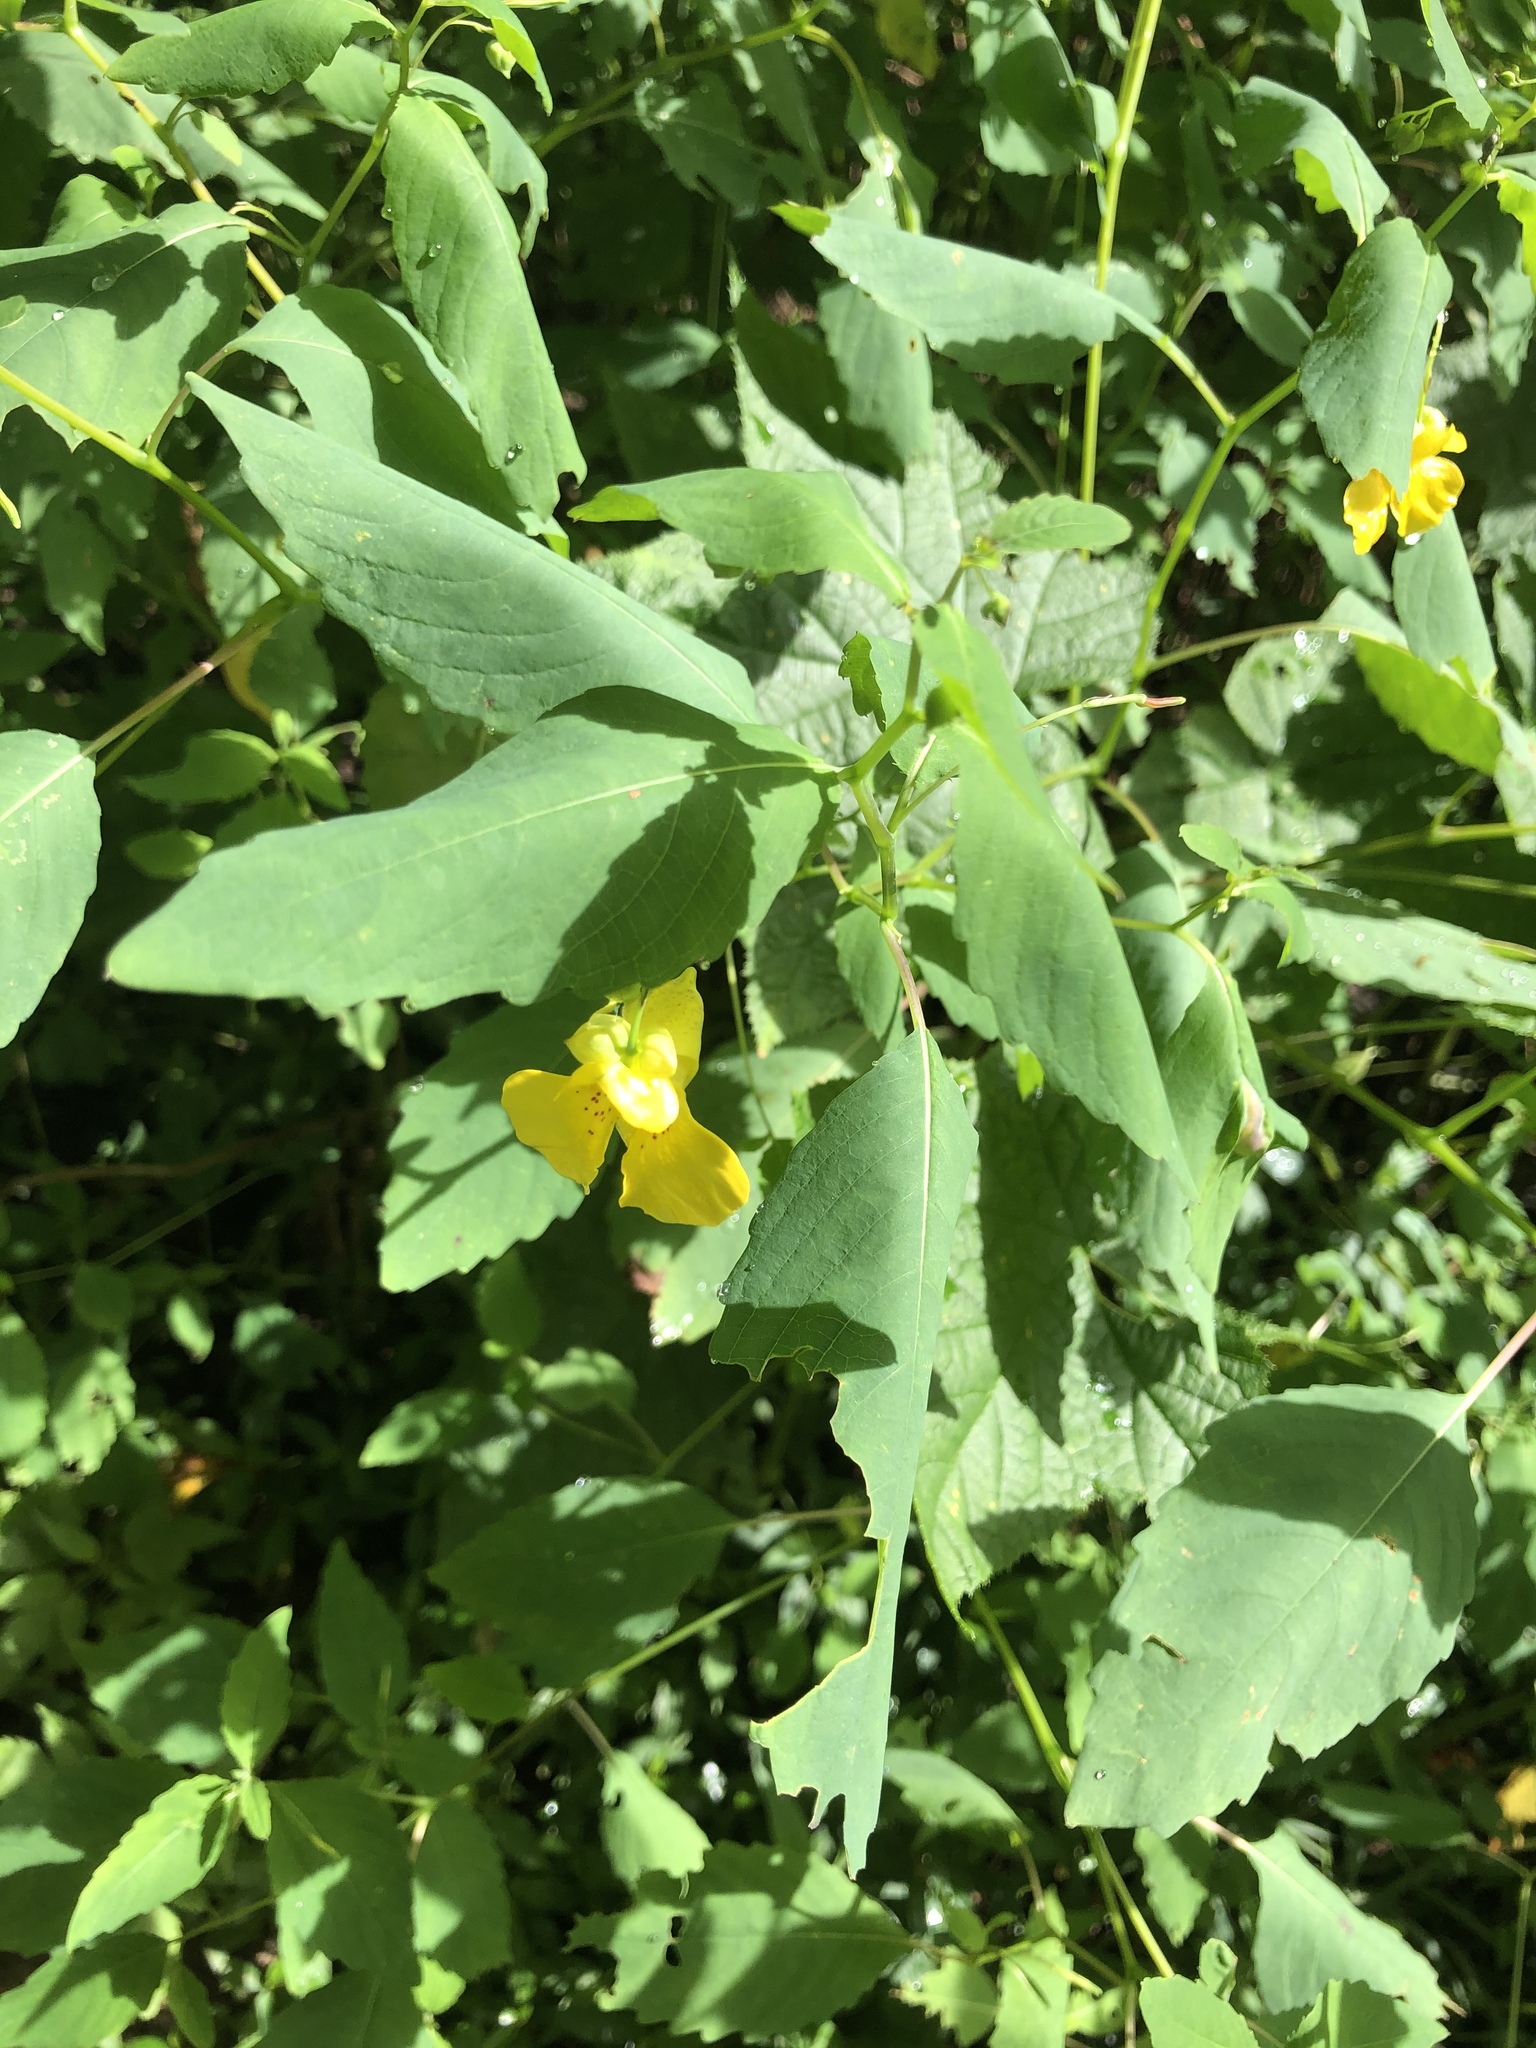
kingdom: Plantae
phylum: Tracheophyta
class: Magnoliopsida
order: Ericales
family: Balsaminaceae
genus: Impatiens
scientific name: Impatiens pallida
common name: Pale snapweed
